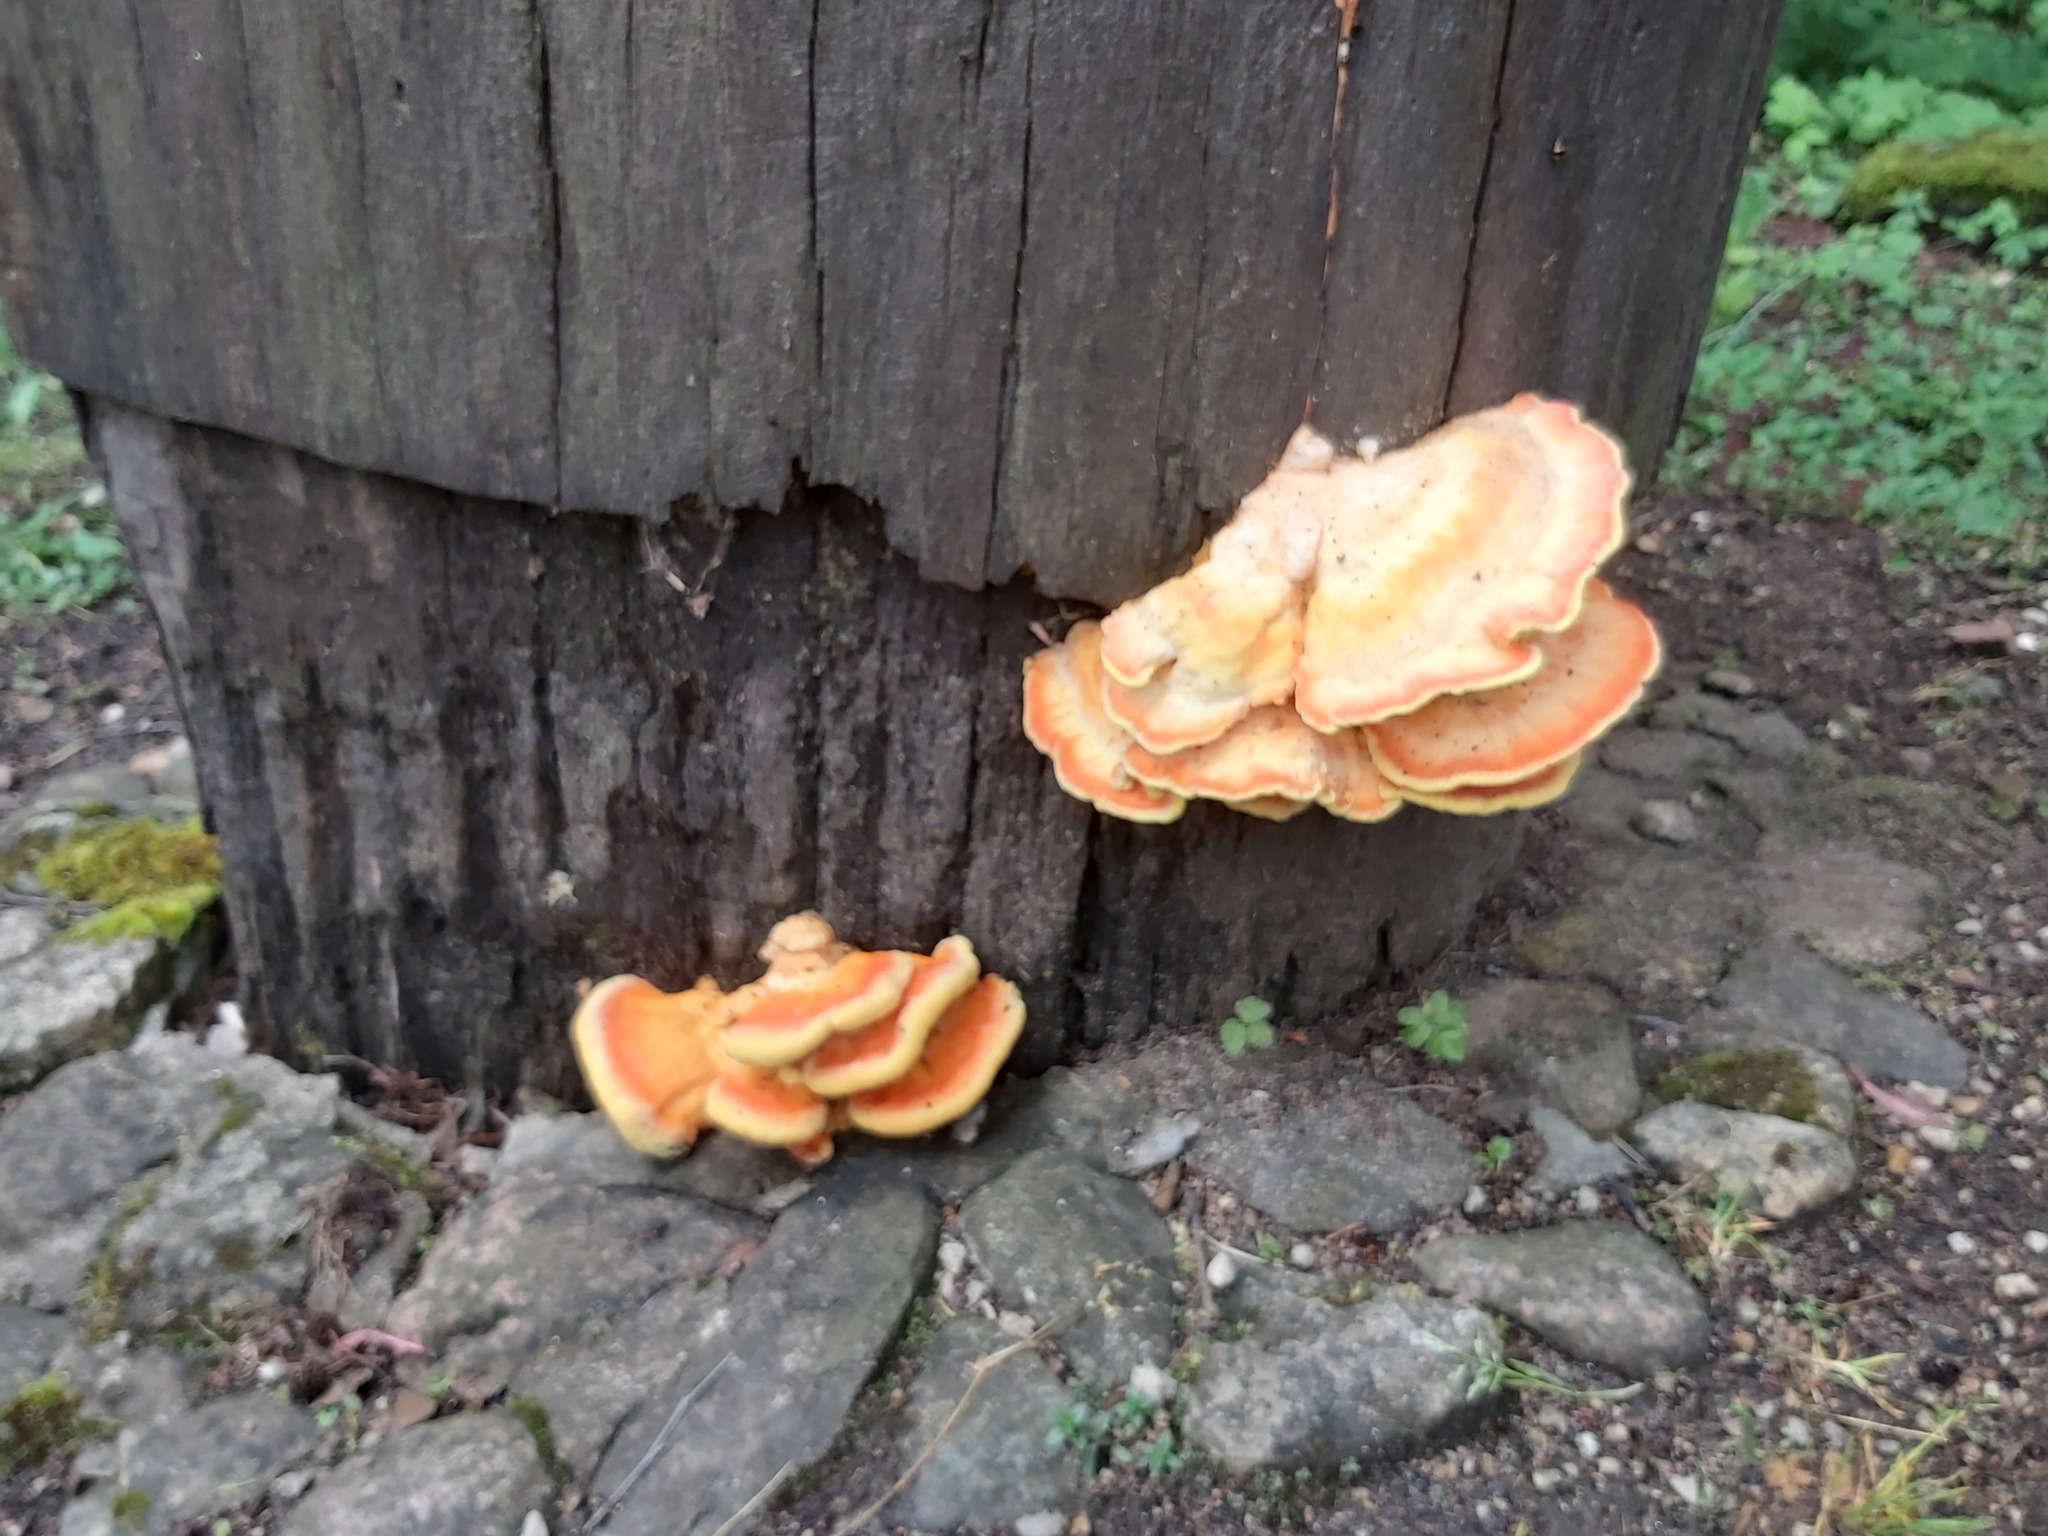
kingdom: Fungi
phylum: Basidiomycota
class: Agaricomycetes
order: Polyporales
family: Laetiporaceae
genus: Laetiporus
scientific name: Laetiporus sulphureus
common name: Chicken of the woods
